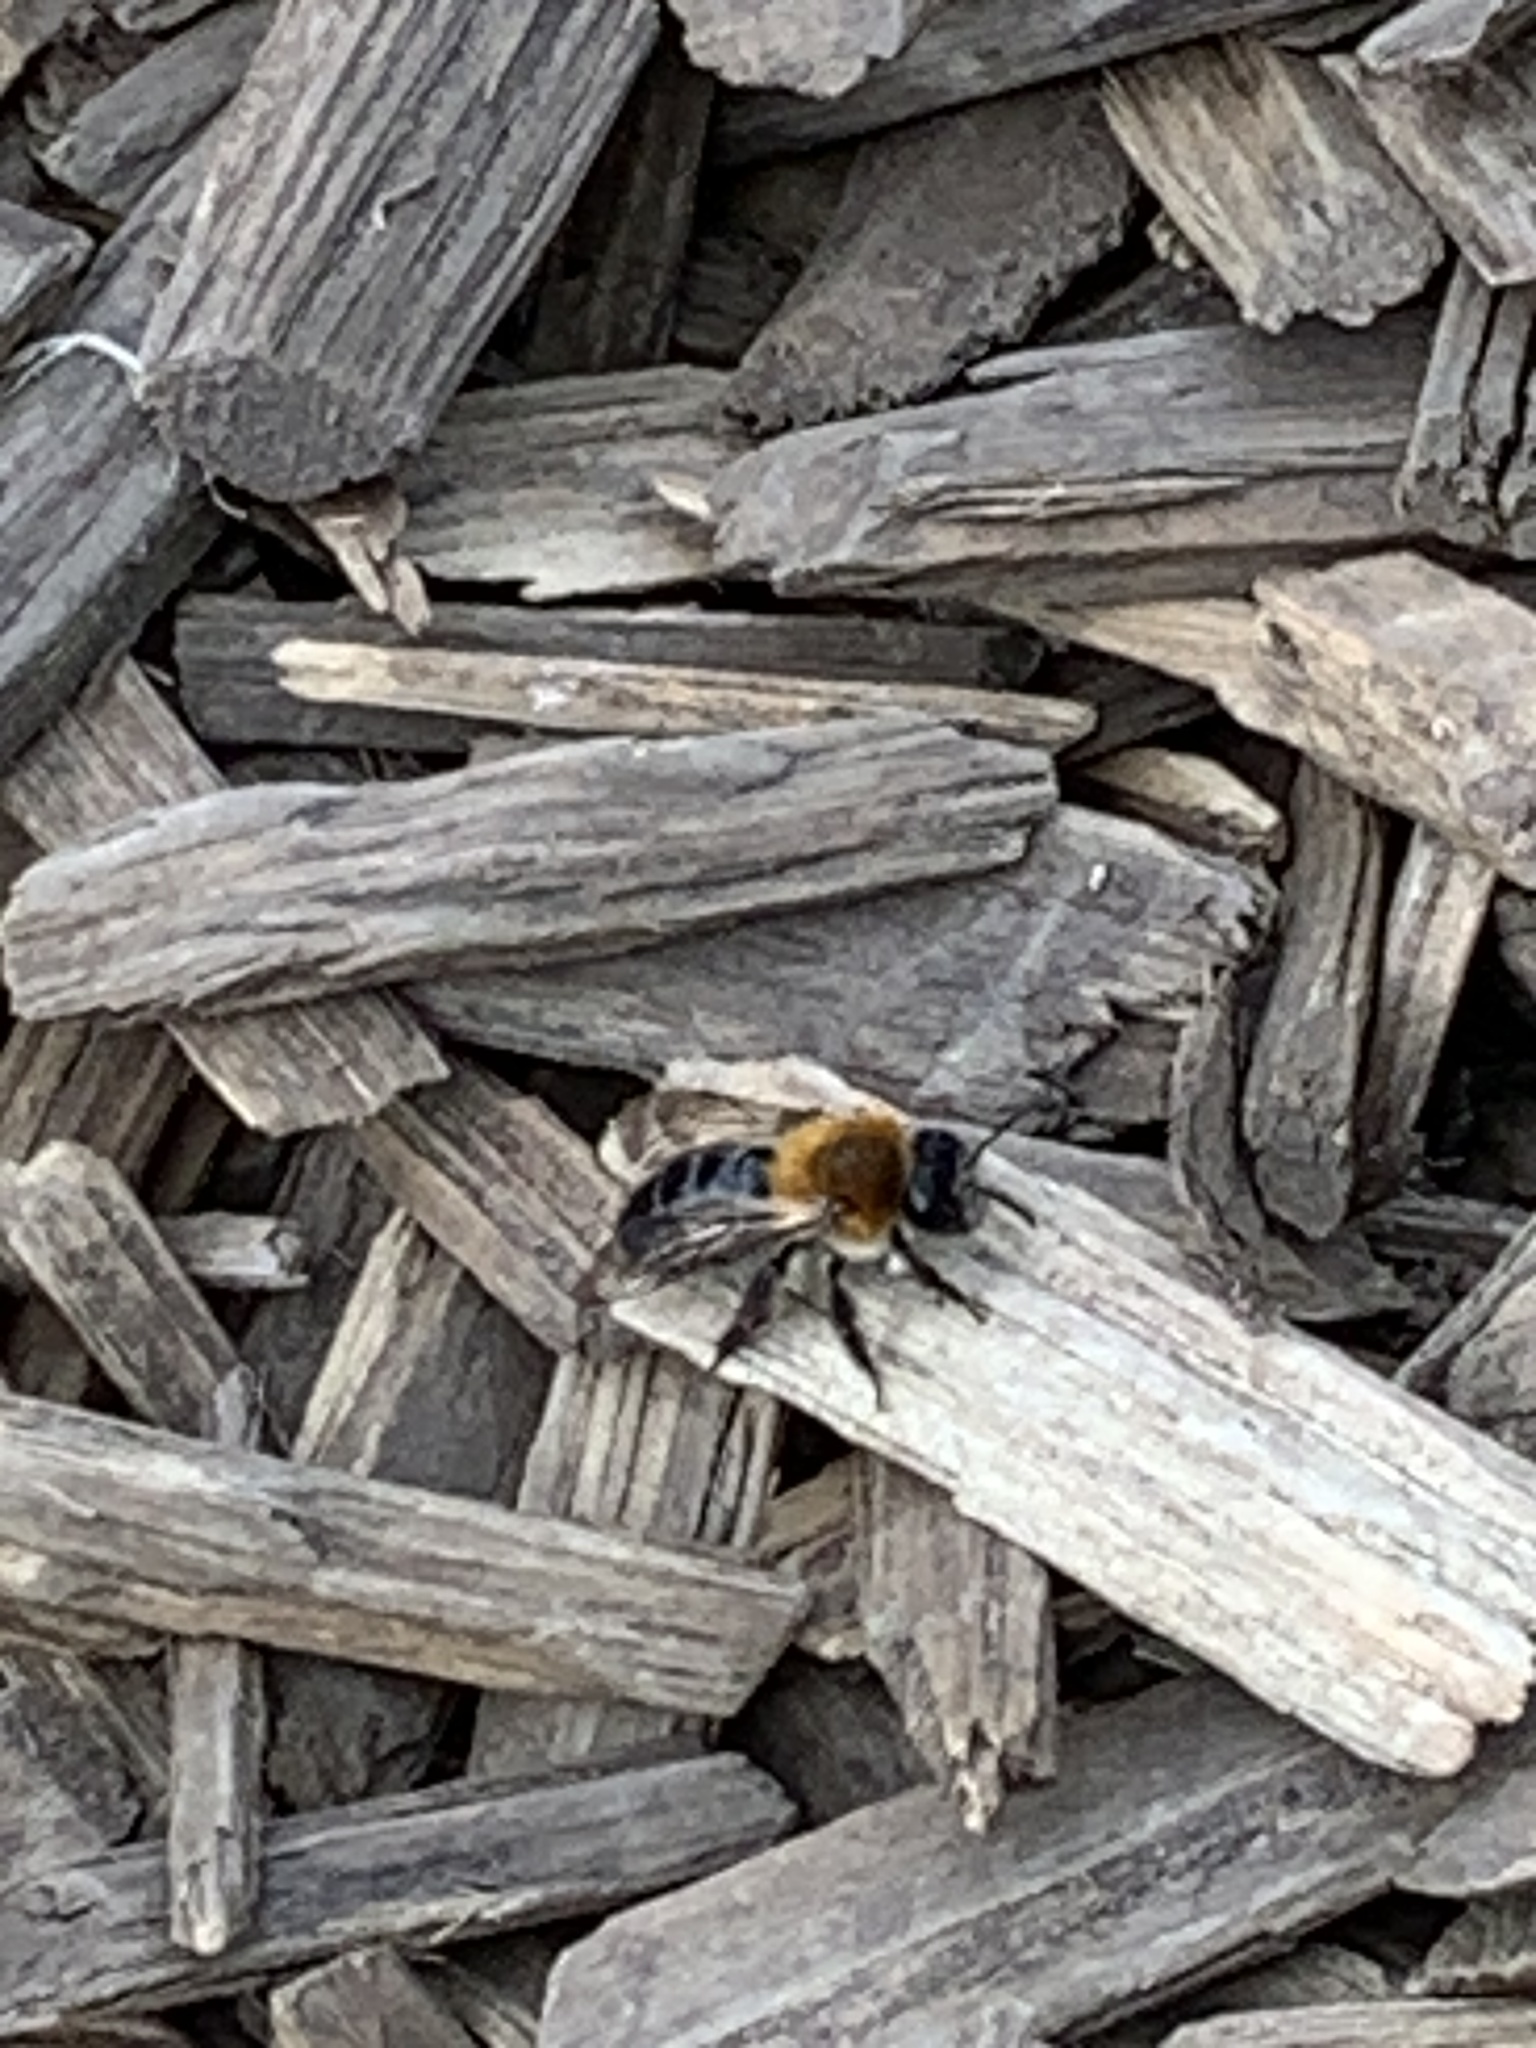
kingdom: Animalia
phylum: Arthropoda
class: Insecta
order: Hymenoptera
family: Andrenidae
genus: Andrena
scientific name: Andrena nitida
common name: Grey-patched mining bee
